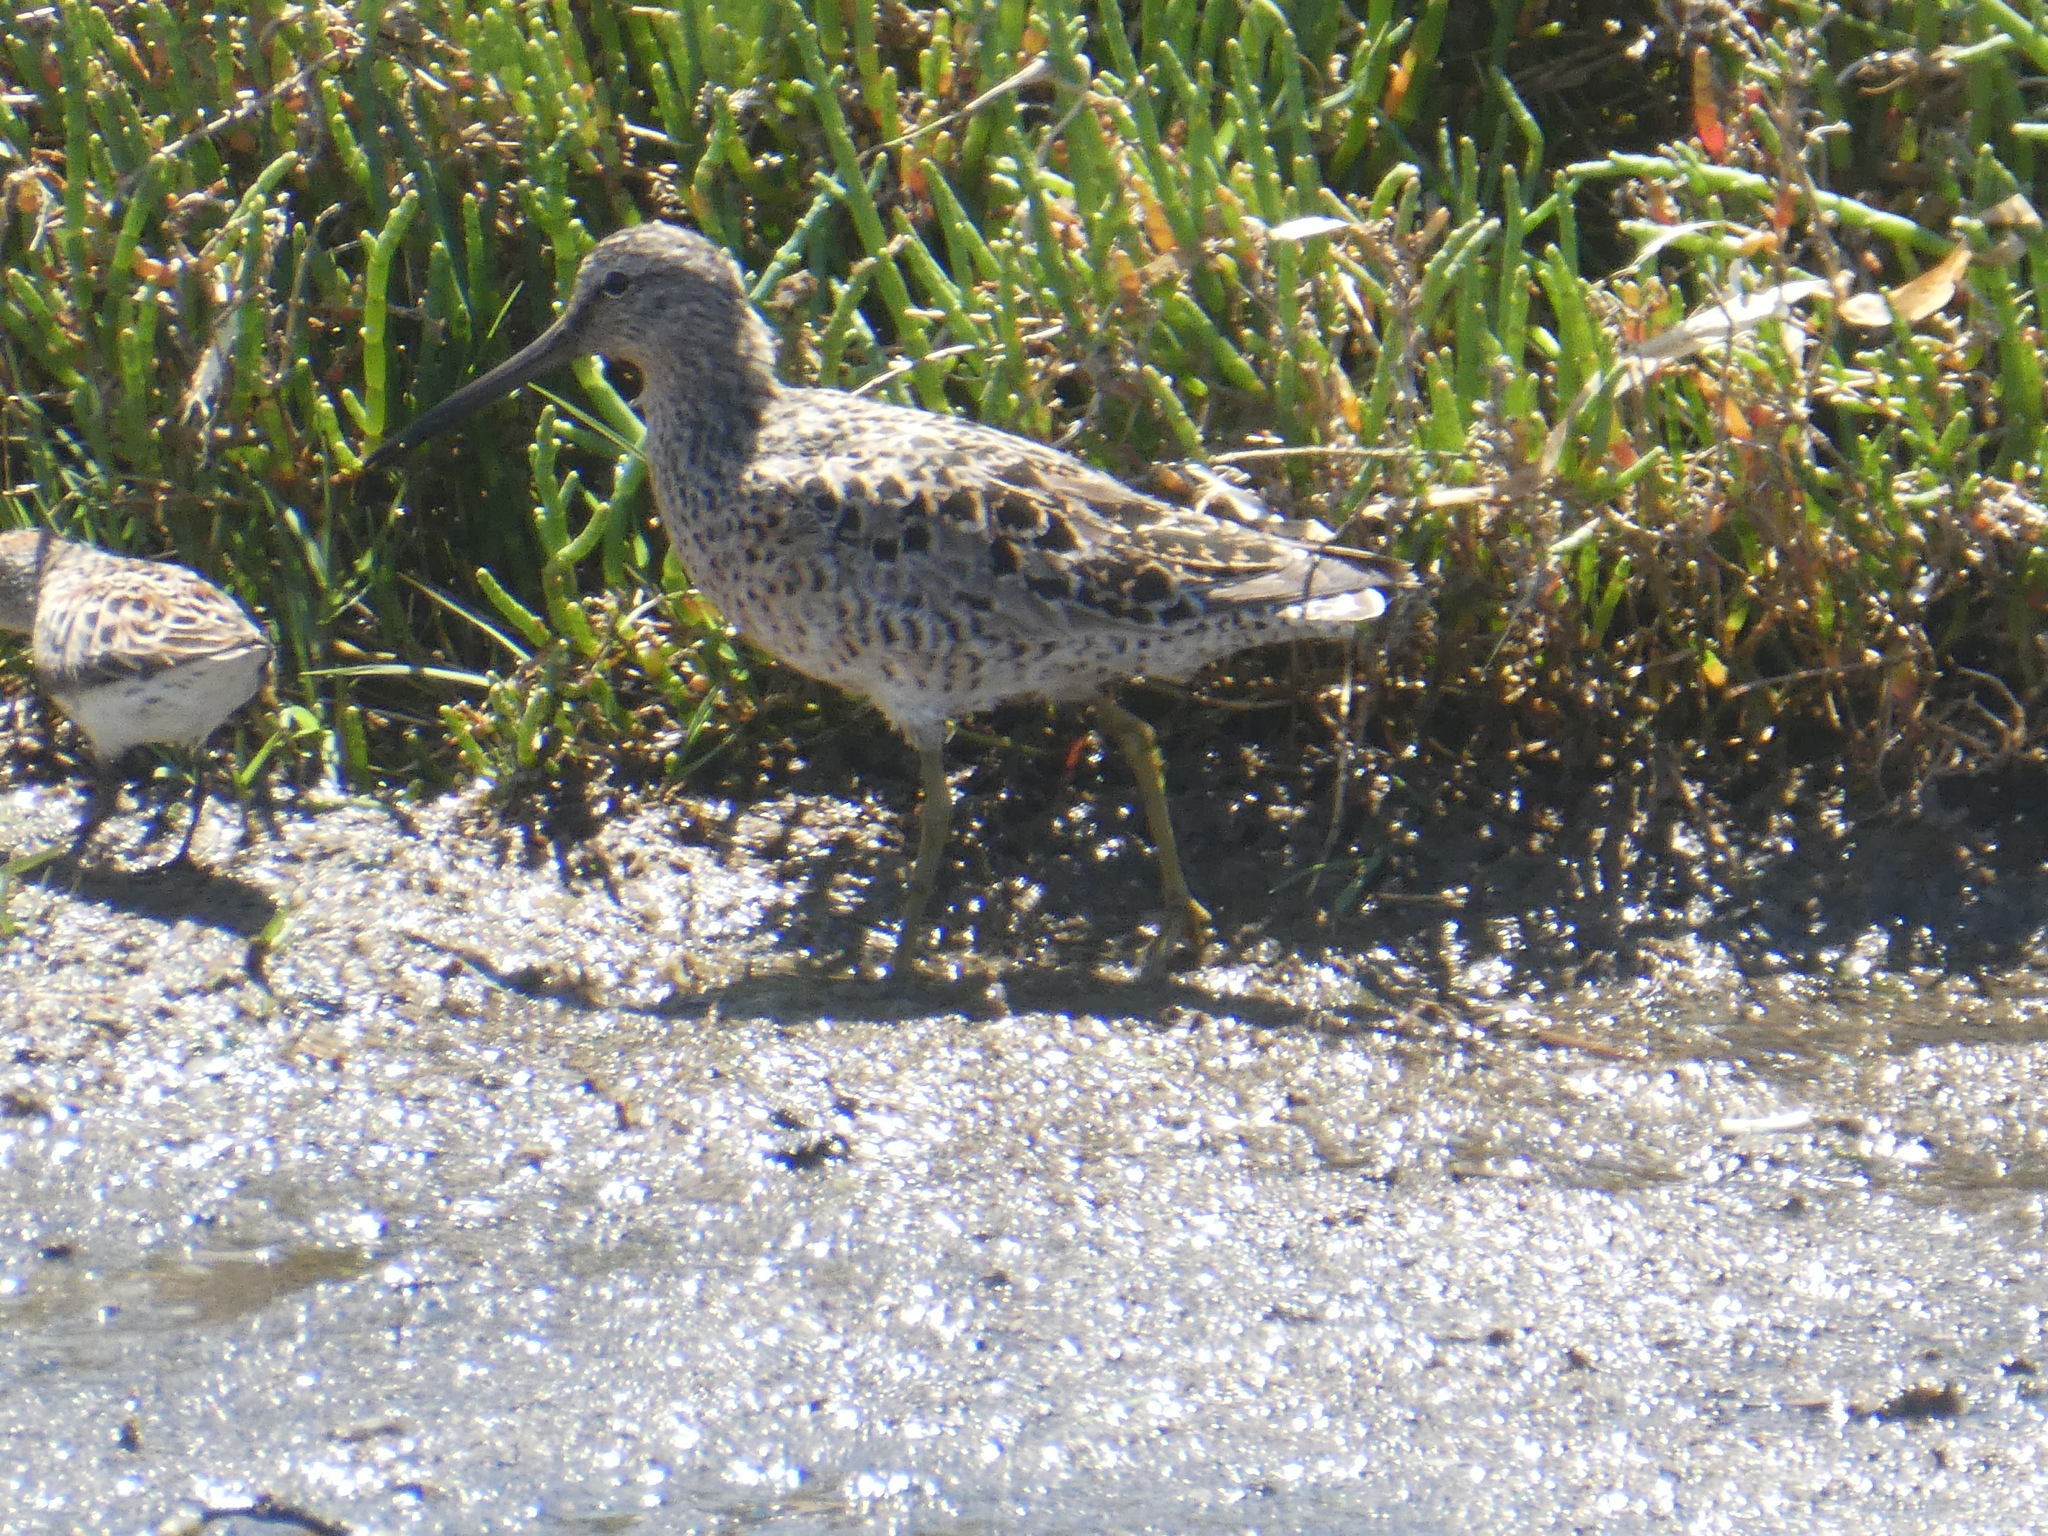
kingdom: Animalia
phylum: Chordata
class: Aves
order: Charadriiformes
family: Scolopacidae
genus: Limnodromus
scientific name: Limnodromus griseus
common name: Short-billed dowitcher
